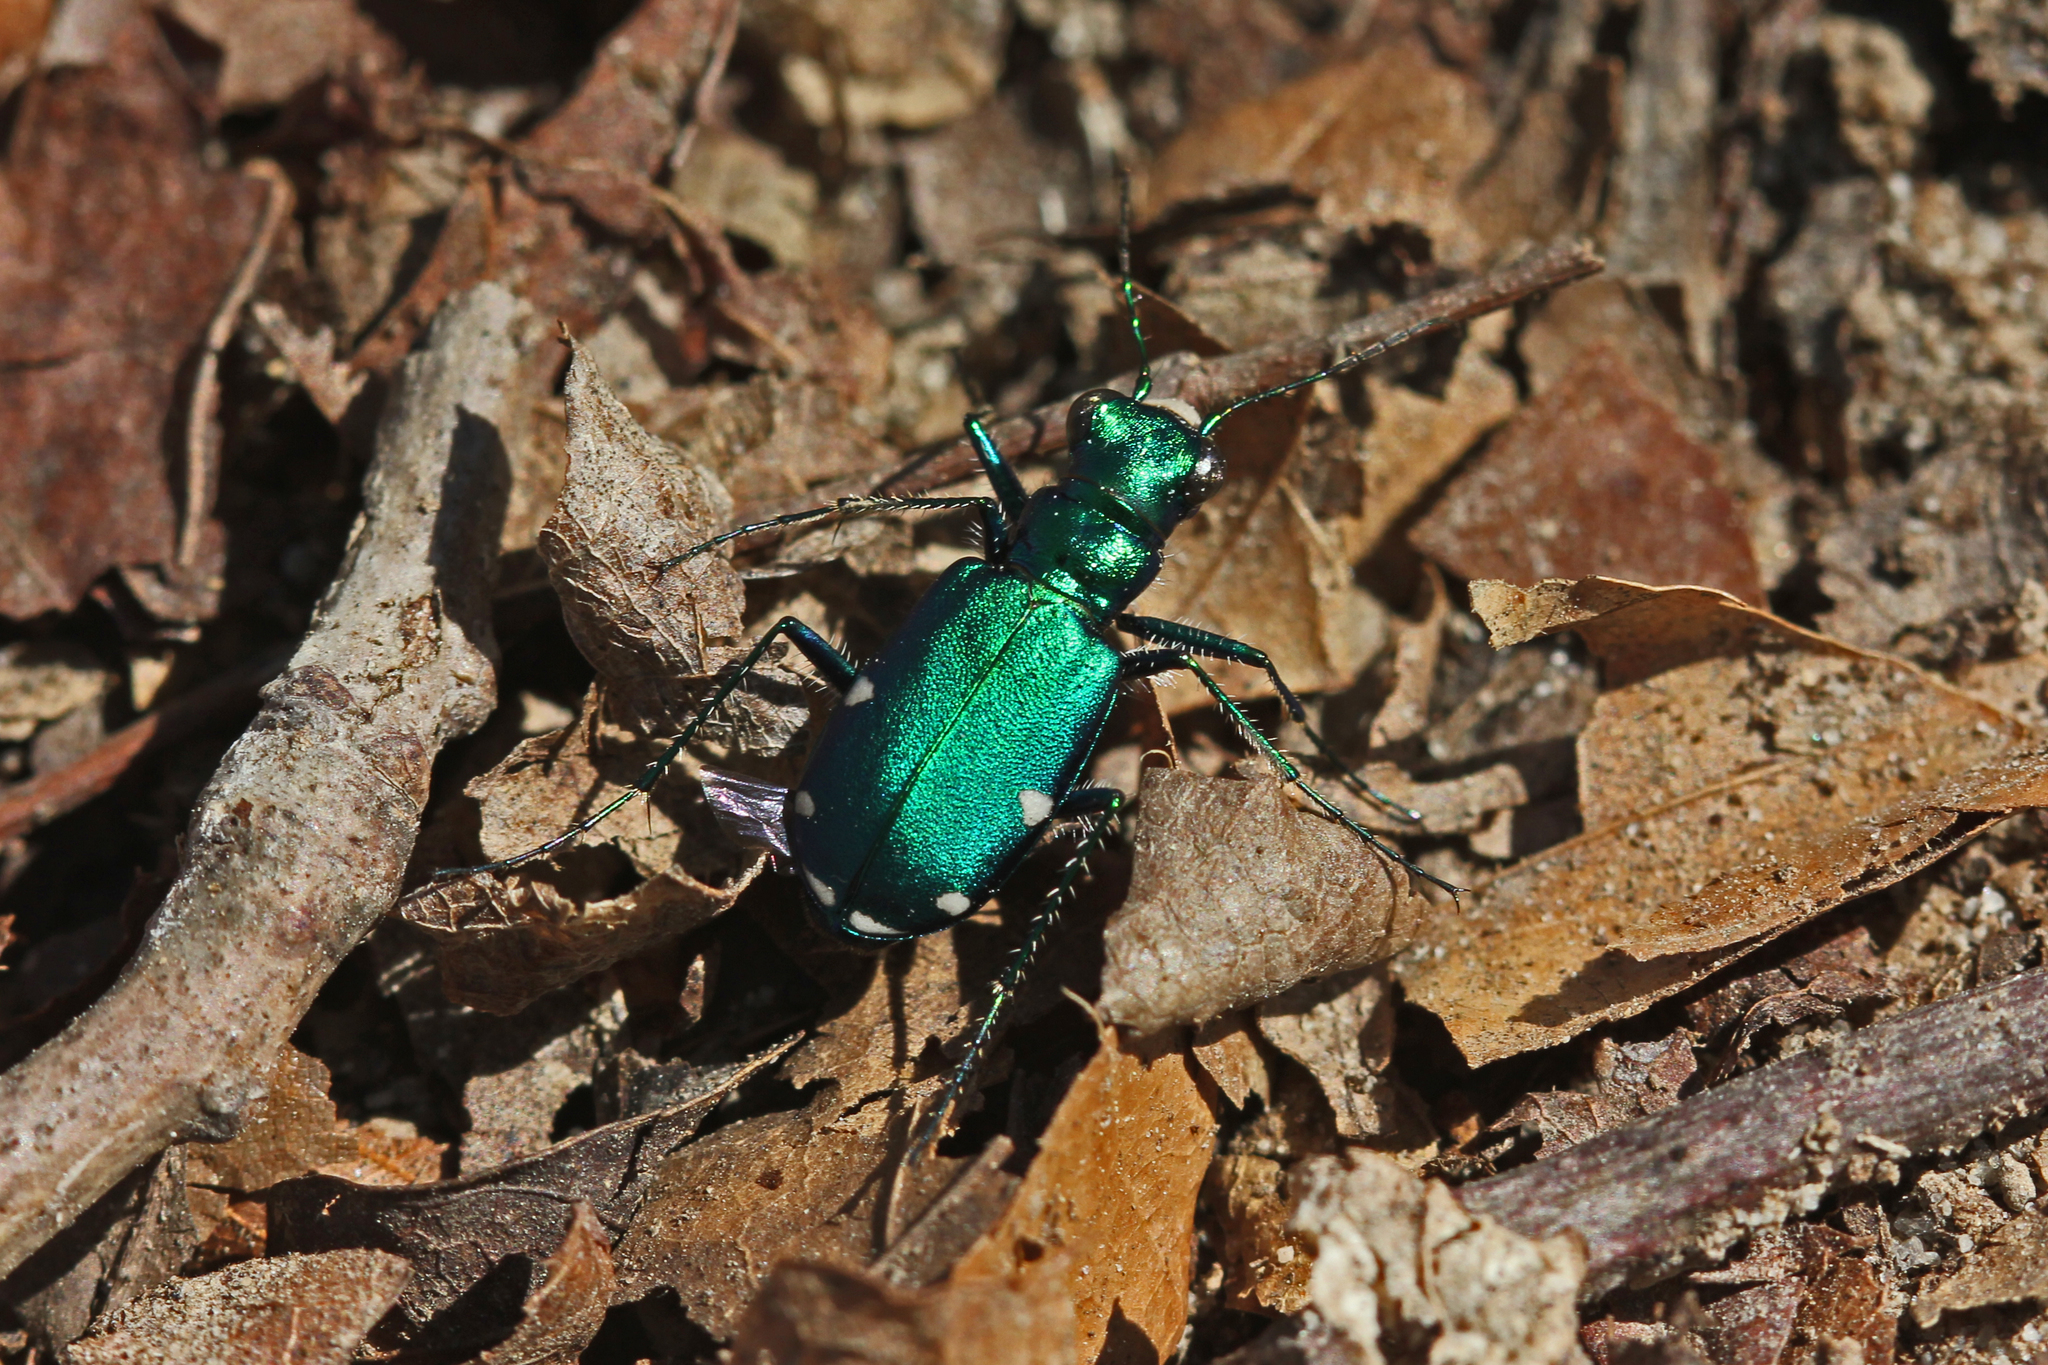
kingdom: Animalia
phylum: Arthropoda
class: Insecta
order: Coleoptera
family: Carabidae
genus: Cicindela
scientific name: Cicindela sexguttata
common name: Six-spotted tiger beetle
